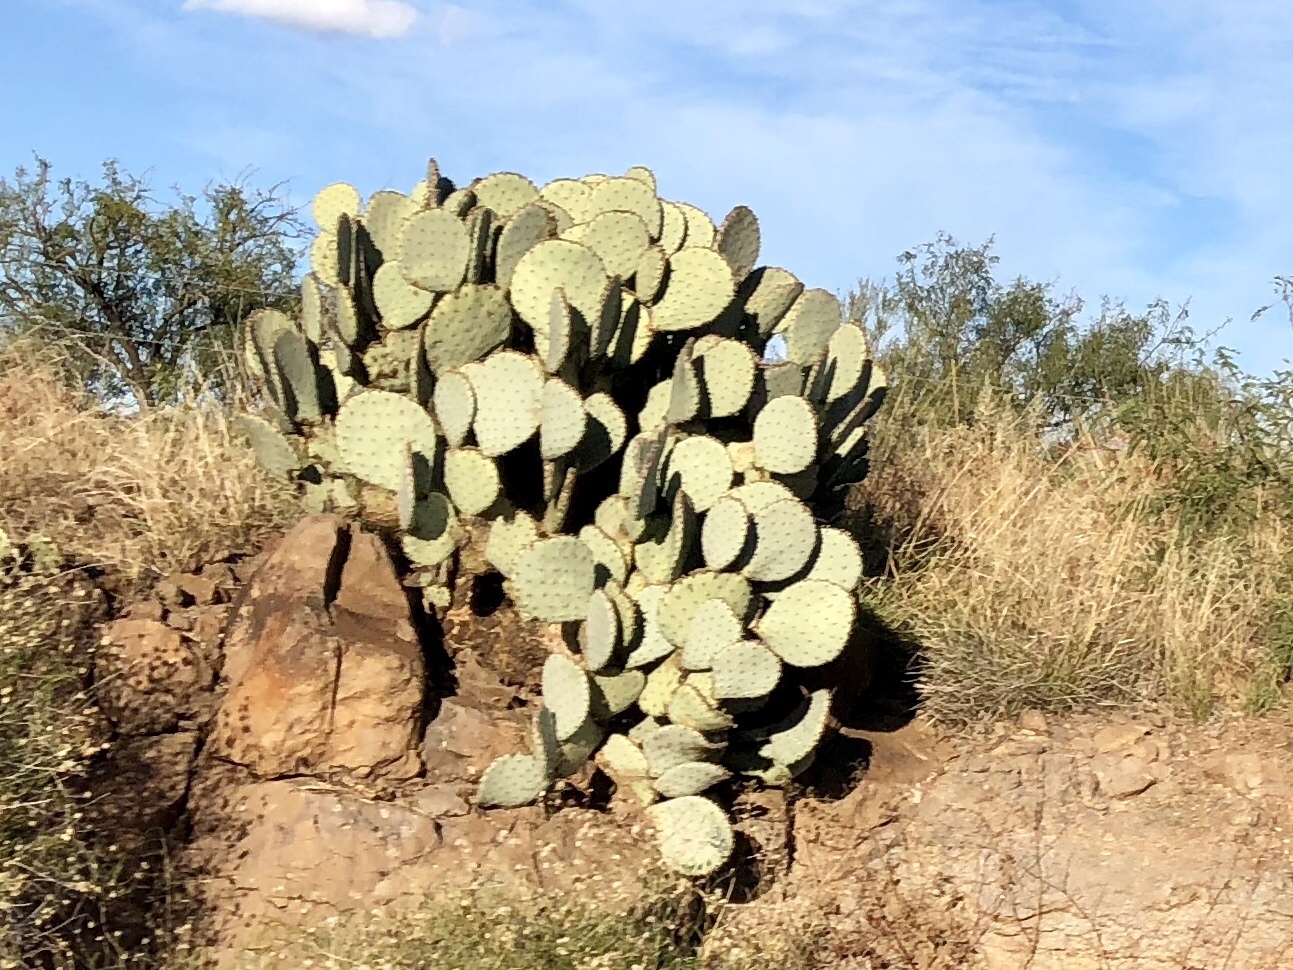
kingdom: Plantae
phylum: Tracheophyta
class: Magnoliopsida
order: Caryophyllales
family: Cactaceae
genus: Opuntia
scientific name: Opuntia chlorotica
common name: Dollar-joint prickly-pear
